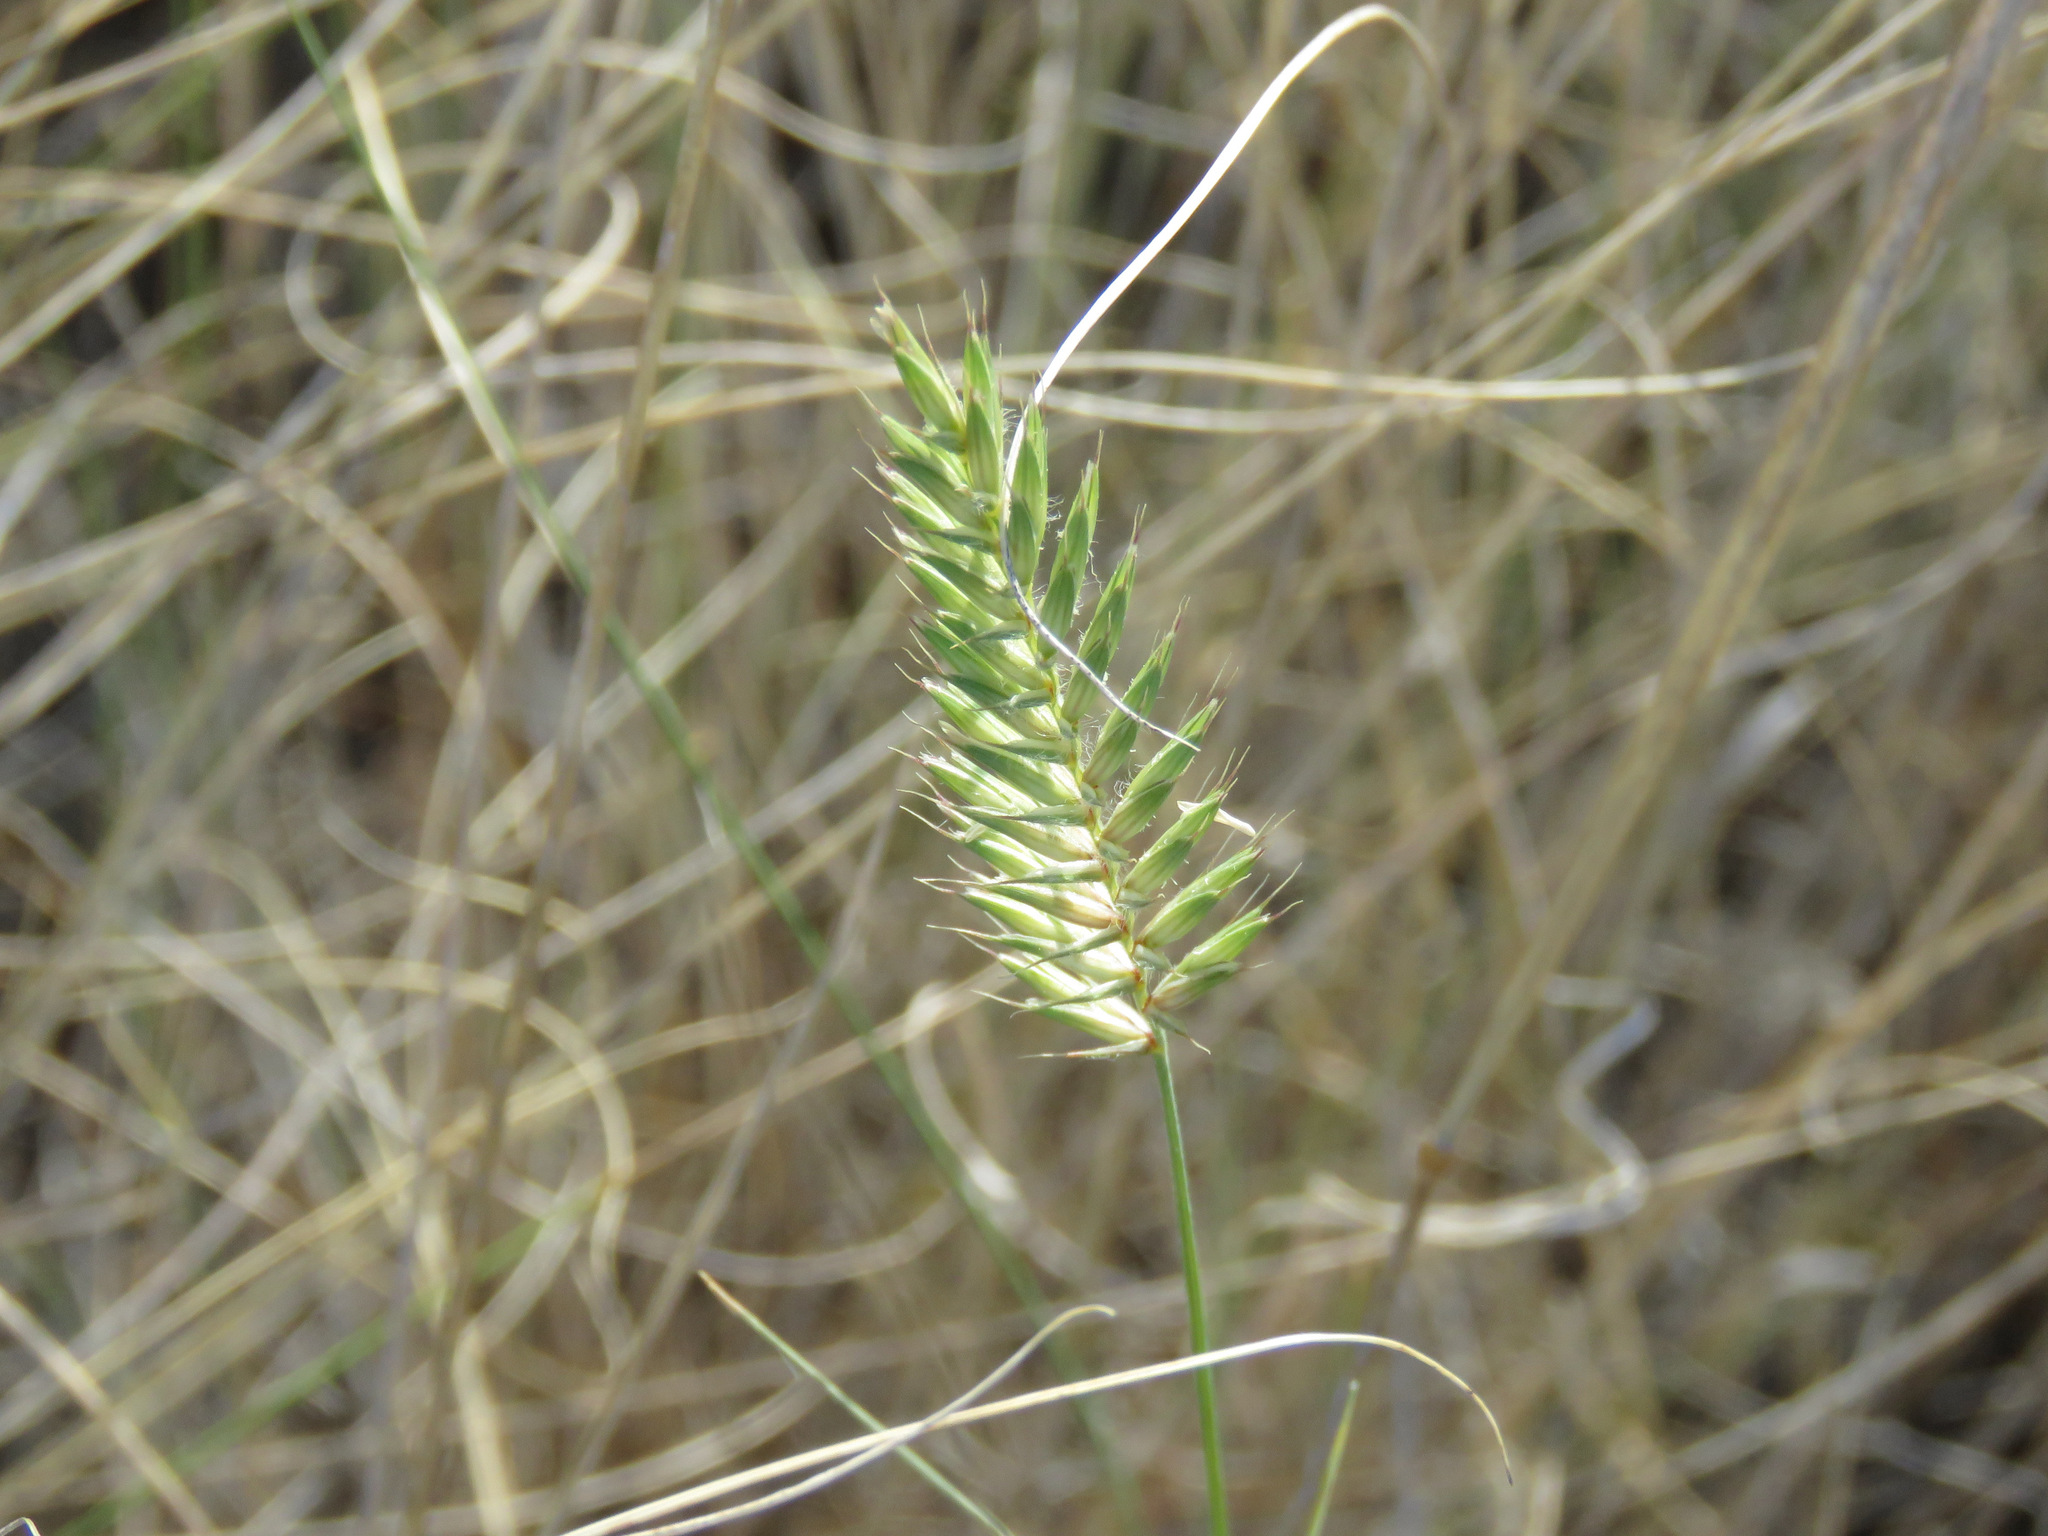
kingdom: Plantae
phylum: Tracheophyta
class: Liliopsida
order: Poales
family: Poaceae
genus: Agropyron
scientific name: Agropyron cristatum
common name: Crested wheatgrass
